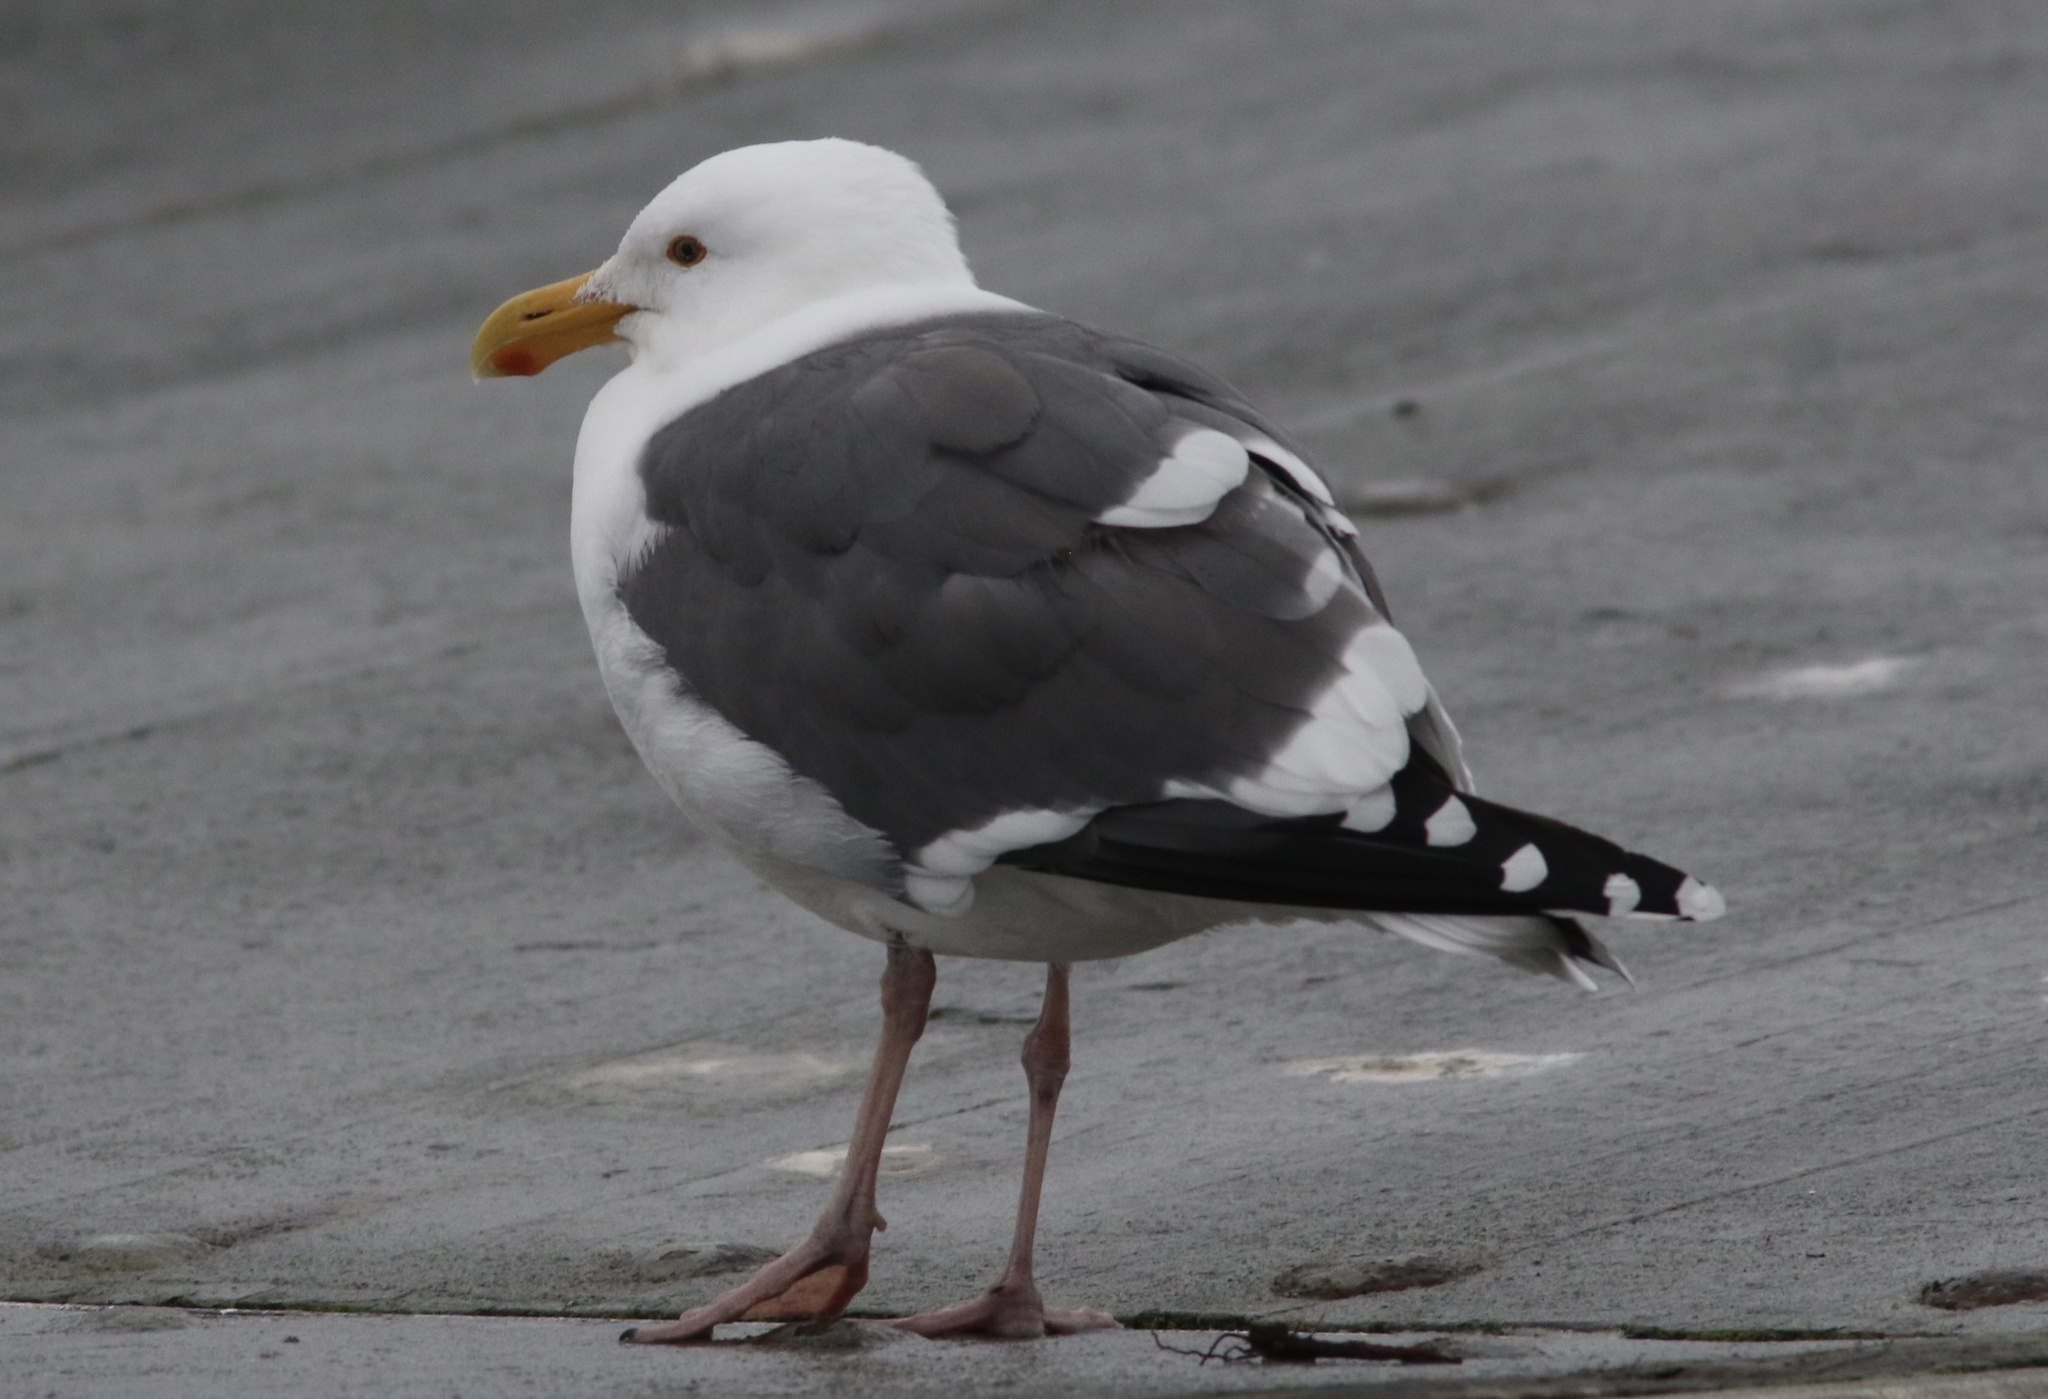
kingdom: Animalia
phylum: Chordata
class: Aves
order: Charadriiformes
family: Laridae
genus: Larus
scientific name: Larus occidentalis
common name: Western gull
